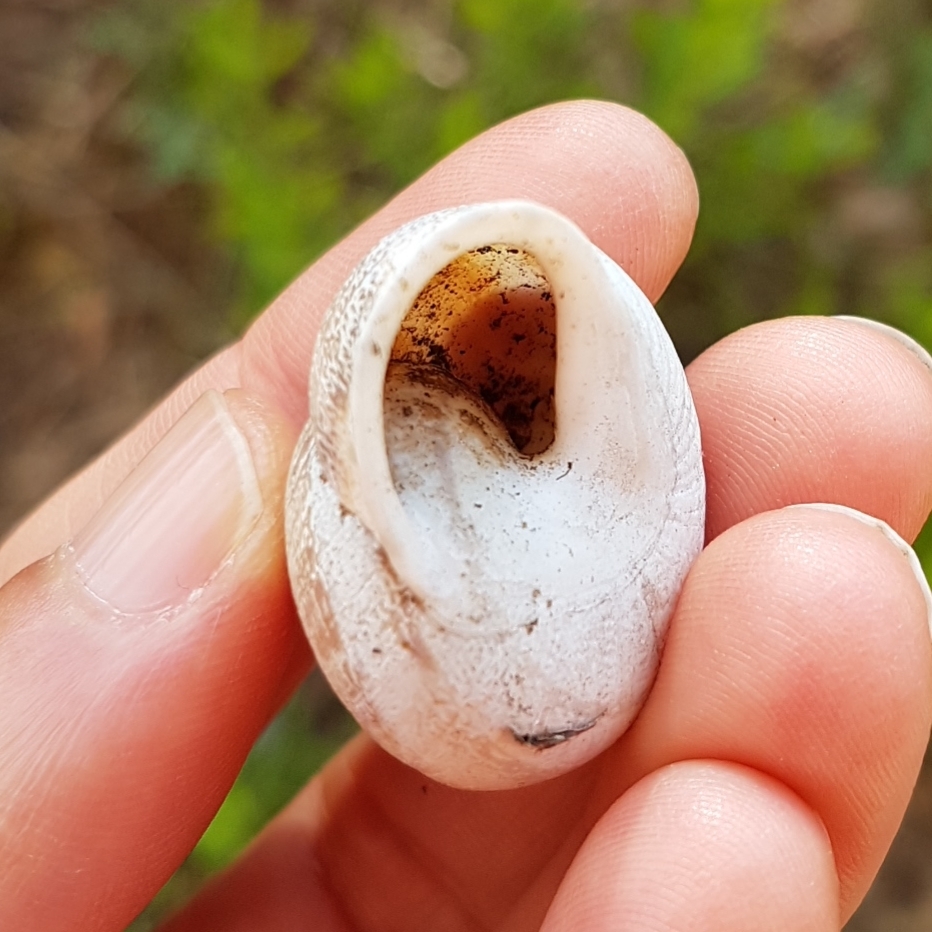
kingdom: Animalia
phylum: Mollusca
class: Gastropoda
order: Stylommatophora
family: Helicidae
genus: Eobania
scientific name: Eobania vermiculata
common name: Chocolateband snail
